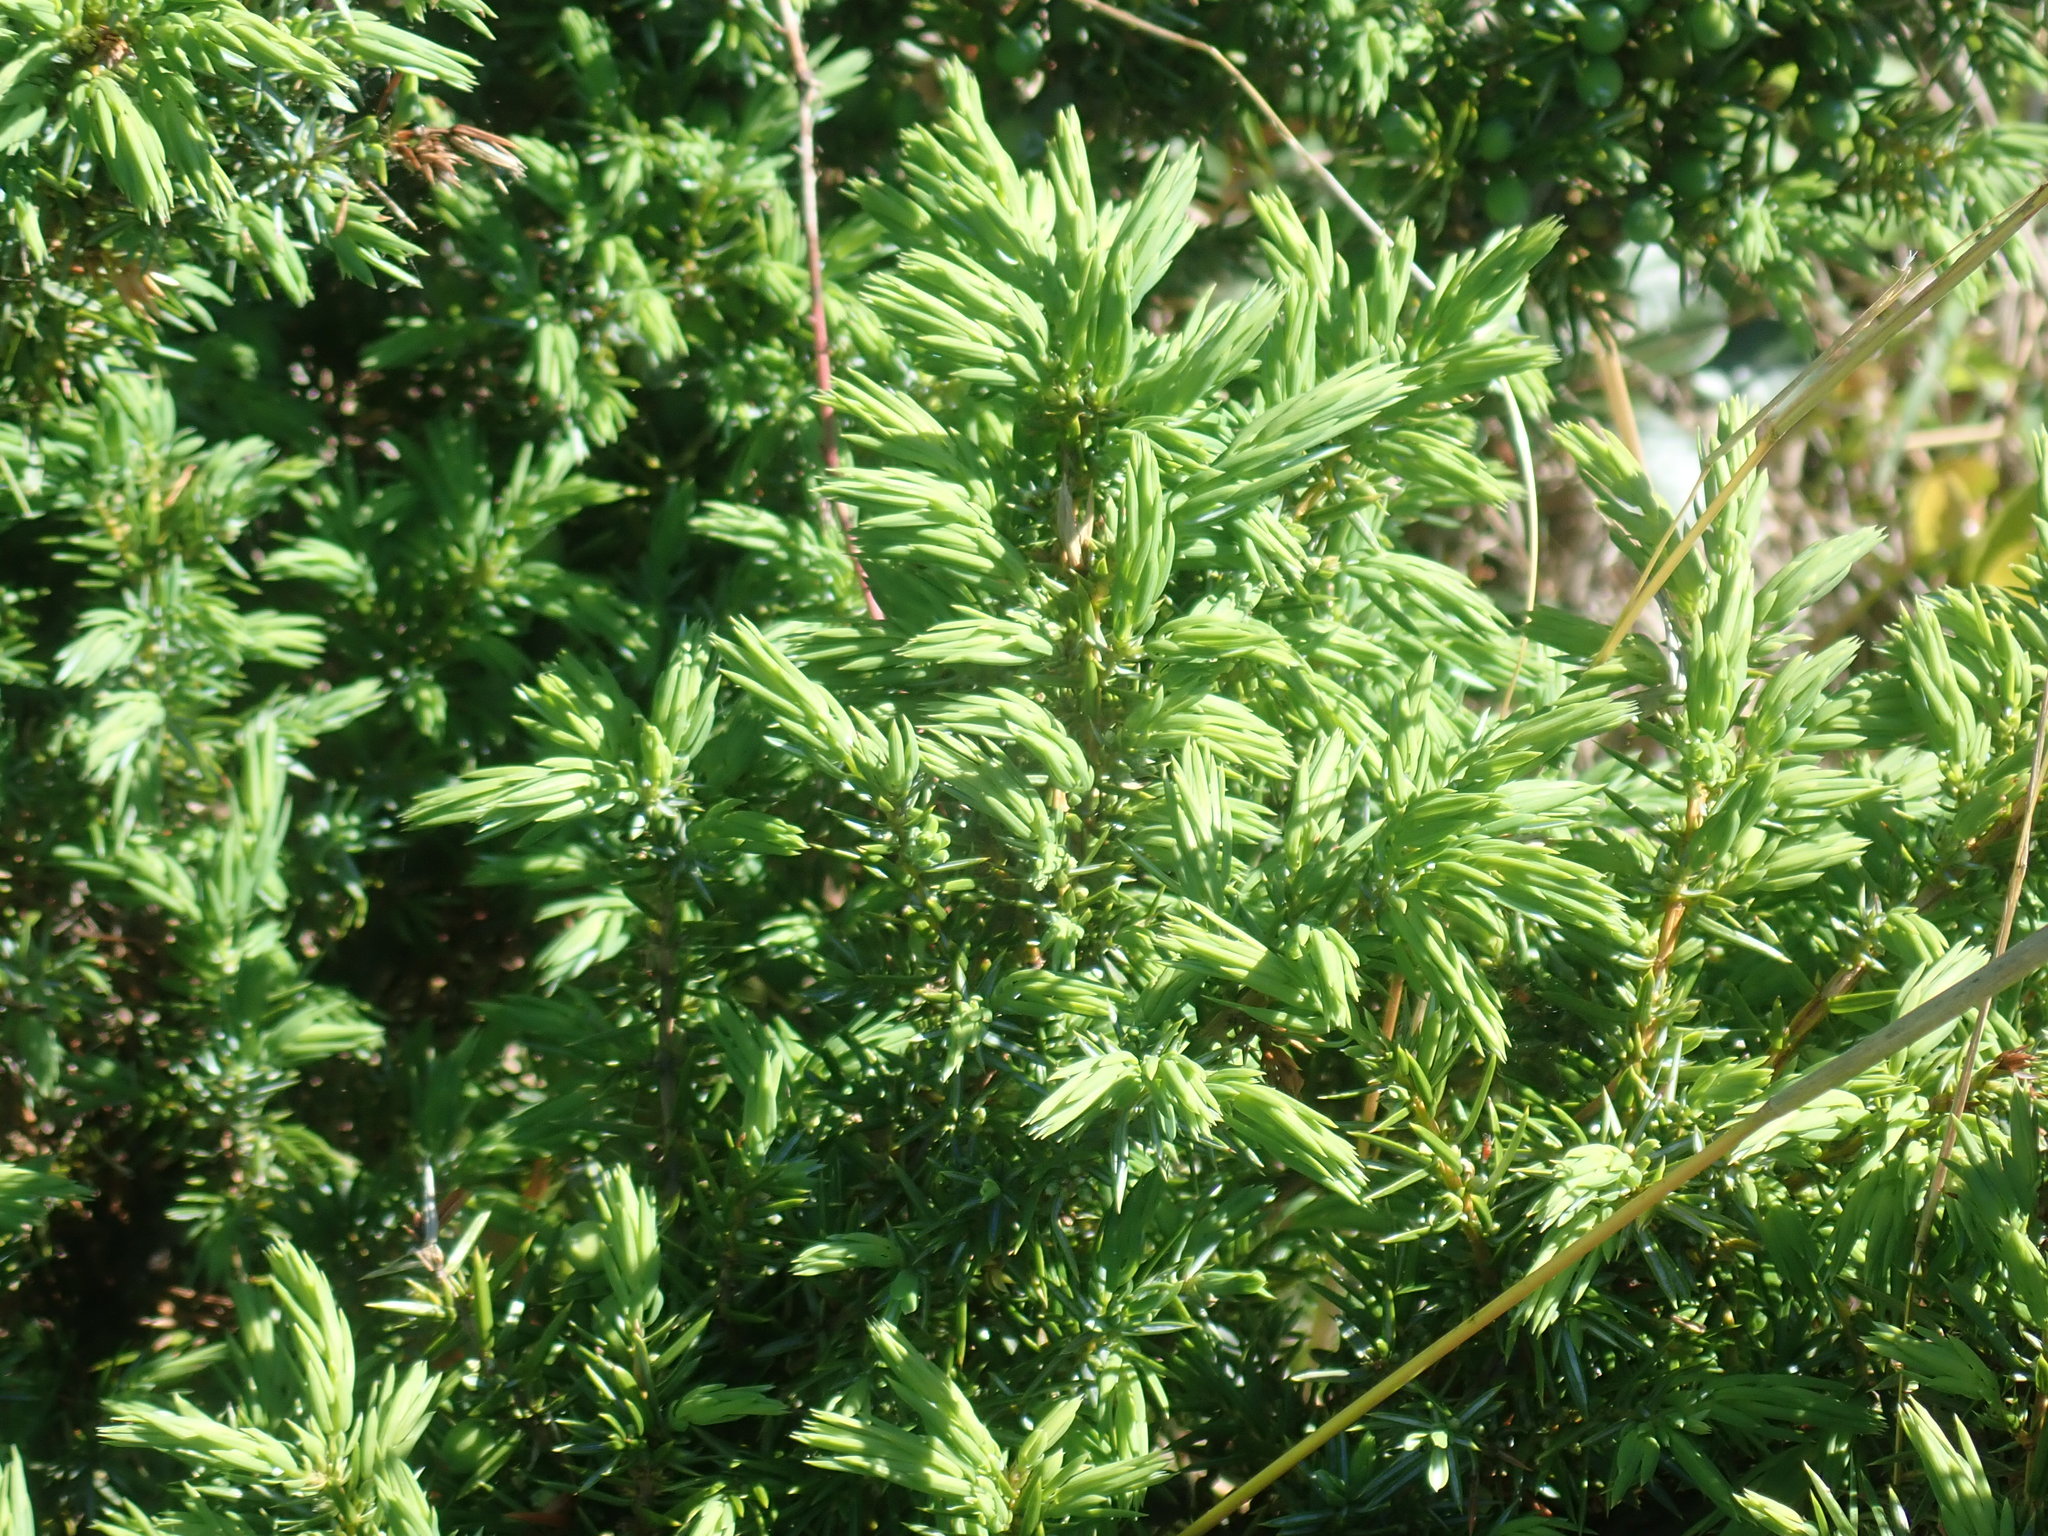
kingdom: Plantae
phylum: Tracheophyta
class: Pinopsida
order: Pinales
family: Cupressaceae
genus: Juniperus
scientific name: Juniperus communis
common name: Common juniper
